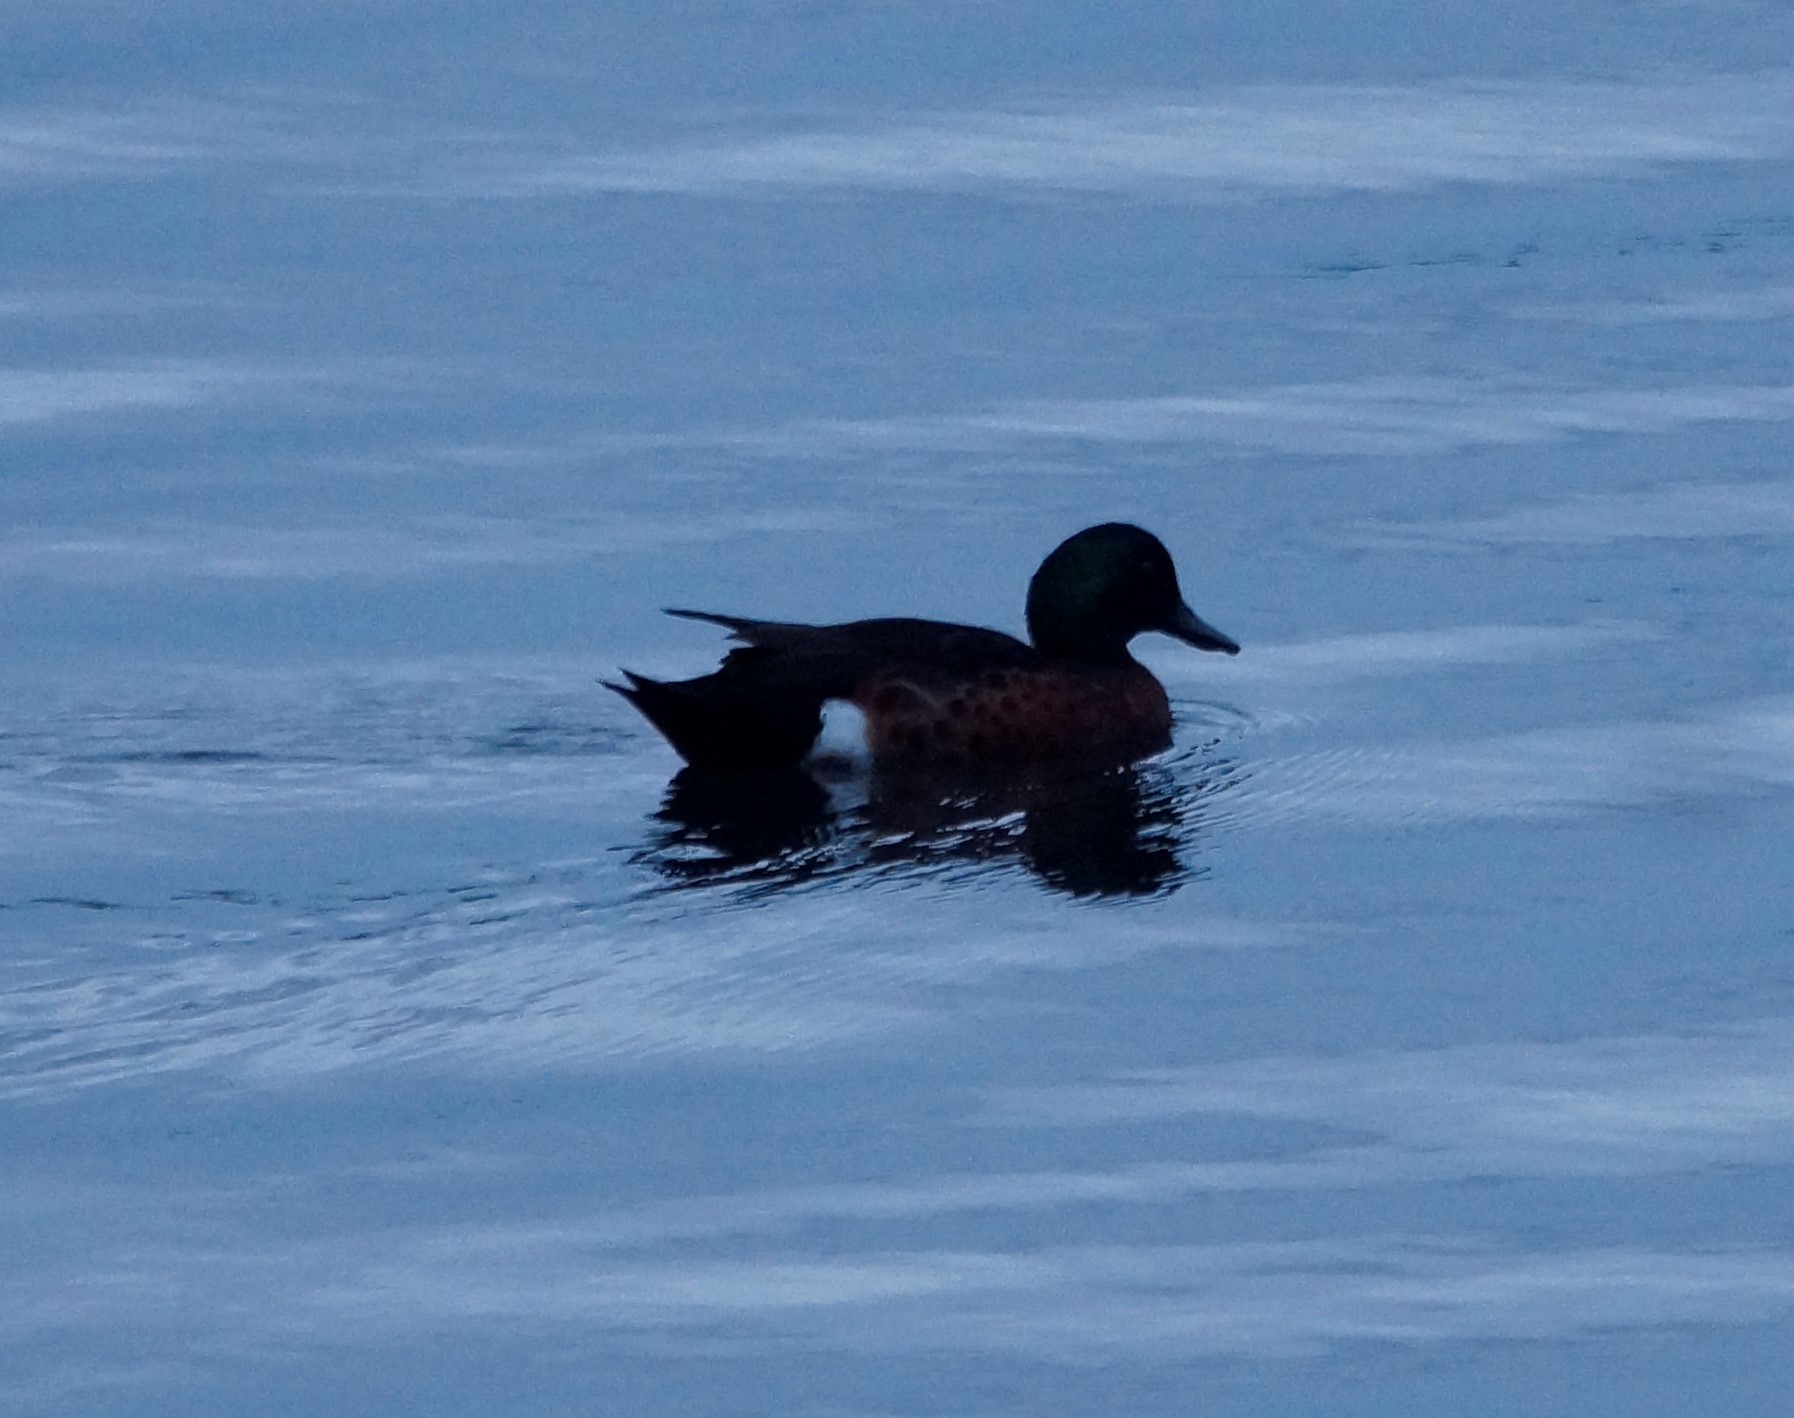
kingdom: Animalia
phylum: Chordata
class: Aves
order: Anseriformes
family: Anatidae
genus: Anas
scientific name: Anas castanea
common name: Chestnut teal
